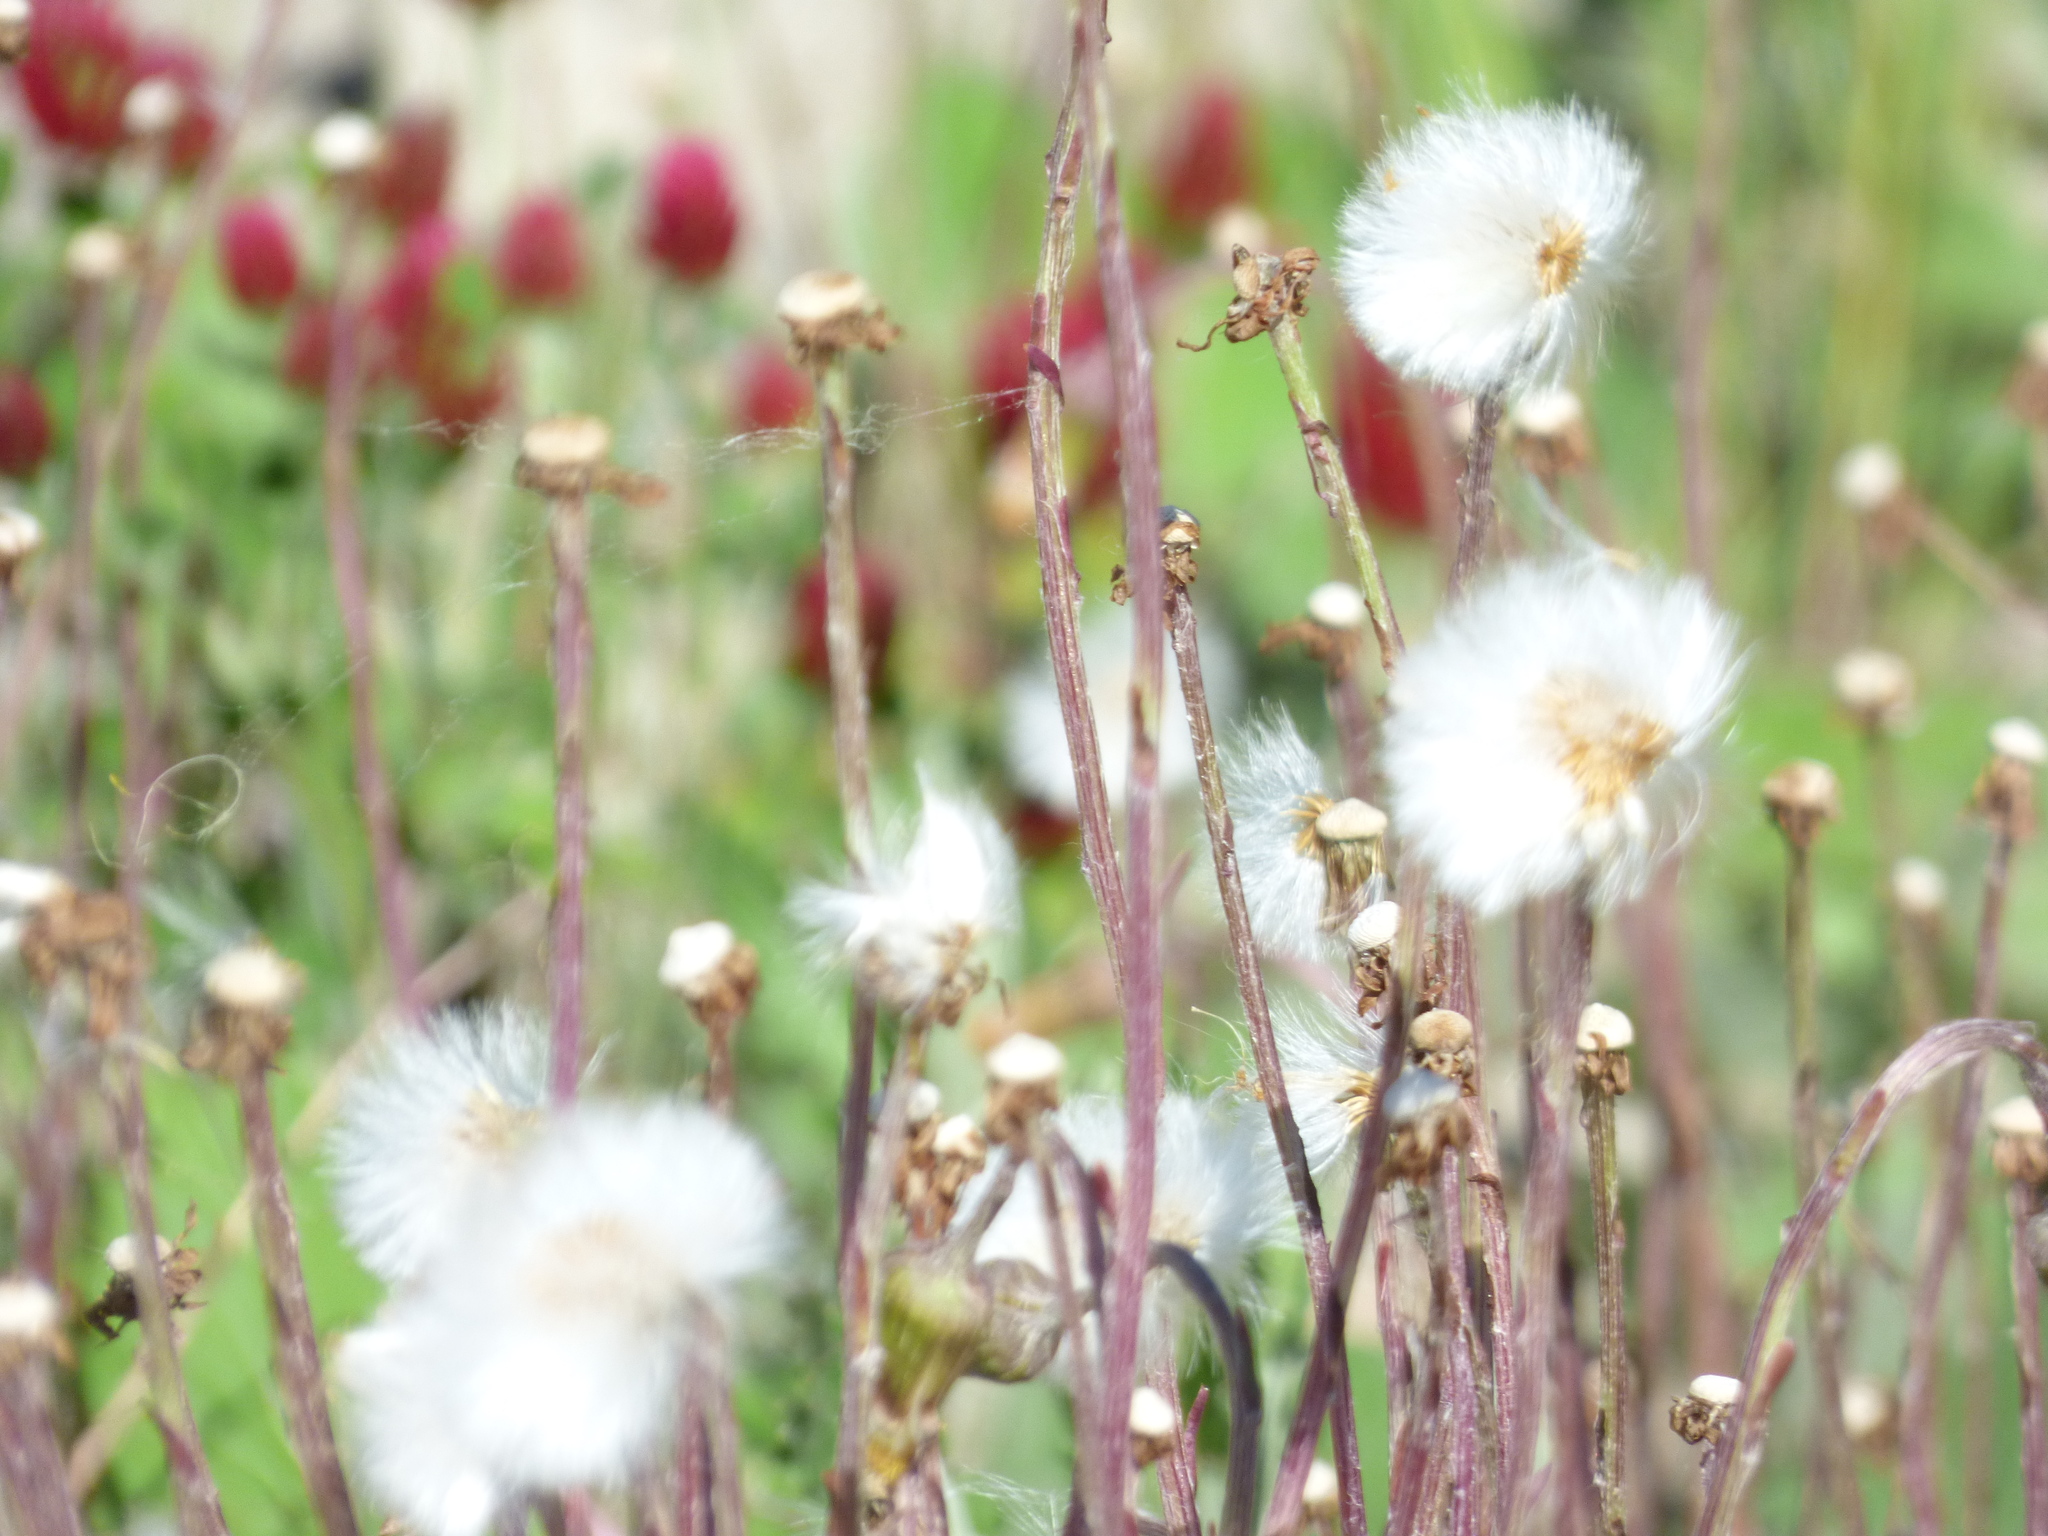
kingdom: Plantae
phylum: Tracheophyta
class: Magnoliopsida
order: Asterales
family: Asteraceae
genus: Tussilago
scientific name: Tussilago farfara
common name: Coltsfoot
